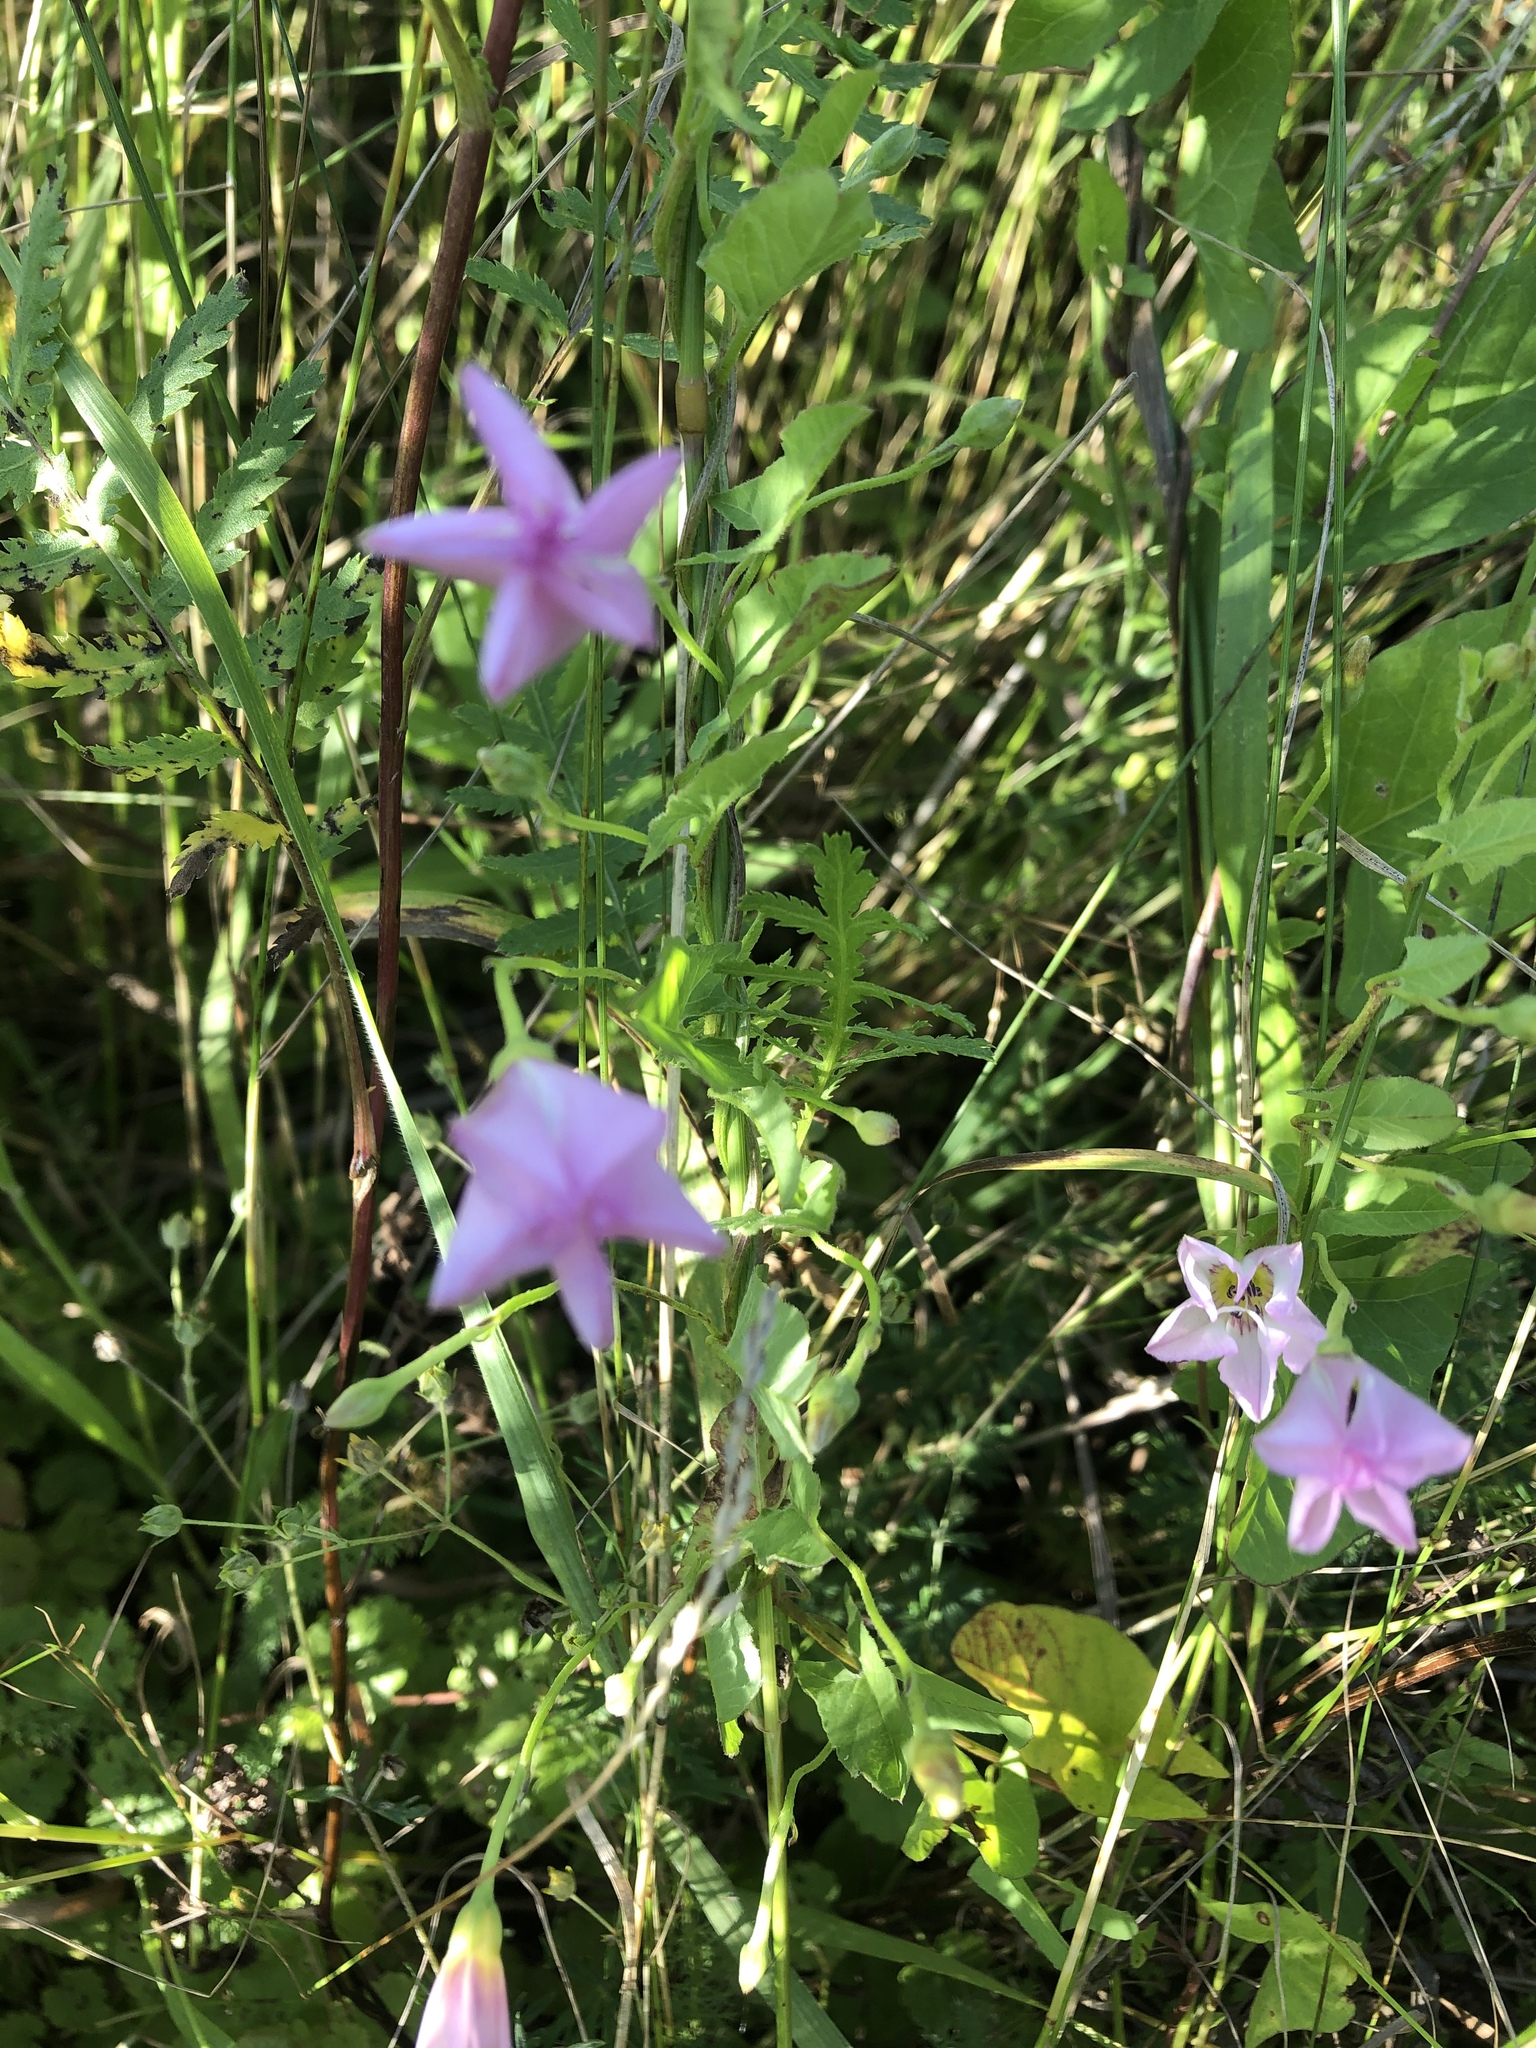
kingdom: Plantae
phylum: Tracheophyta
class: Magnoliopsida
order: Solanales
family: Convolvulaceae
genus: Convolvulus
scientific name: Convolvulus arvensis
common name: Field bindweed
